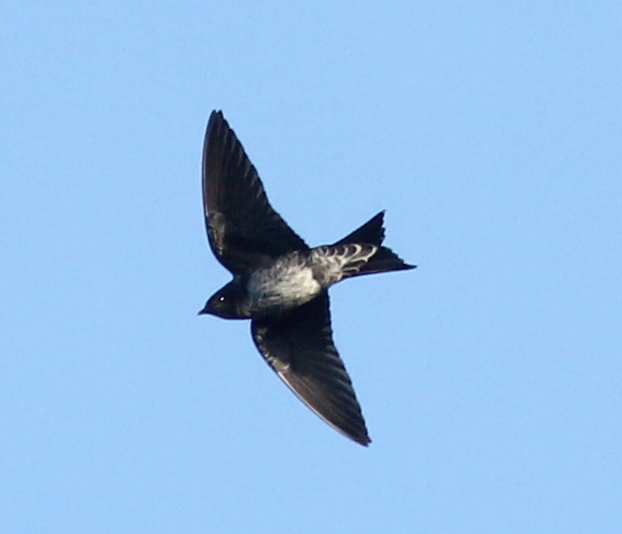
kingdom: Animalia
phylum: Chordata
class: Aves
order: Passeriformes
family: Hirundinidae
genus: Progne
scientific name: Progne elegans
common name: Southern martin
